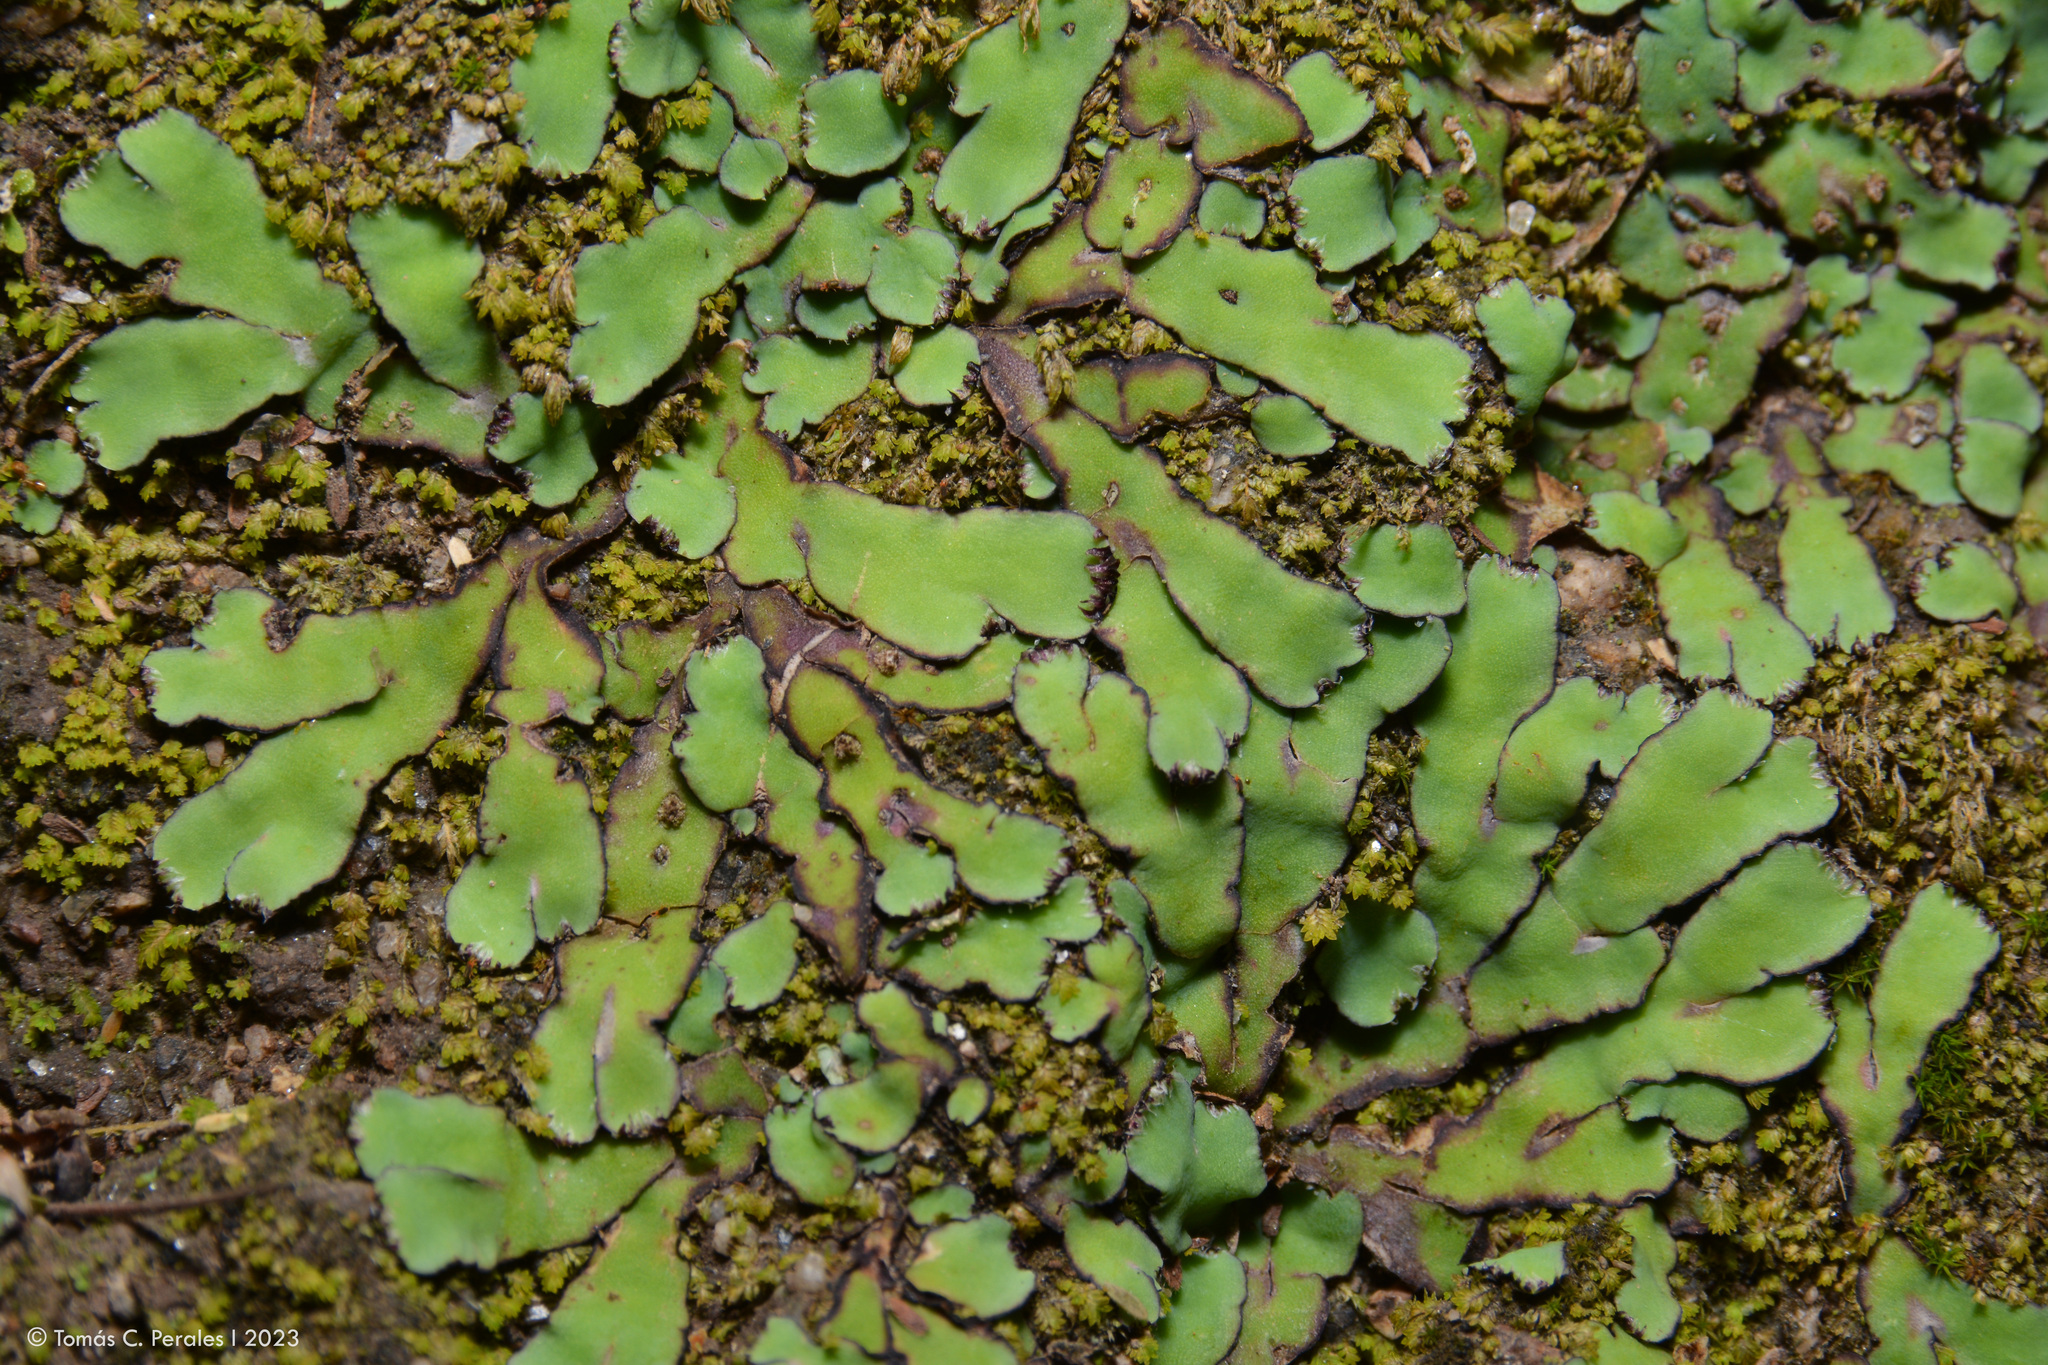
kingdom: Plantae
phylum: Marchantiophyta
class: Marchantiopsida
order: Marchantiales
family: Aytoniaceae
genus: Plagiochasma
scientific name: Plagiochasma rupestre
